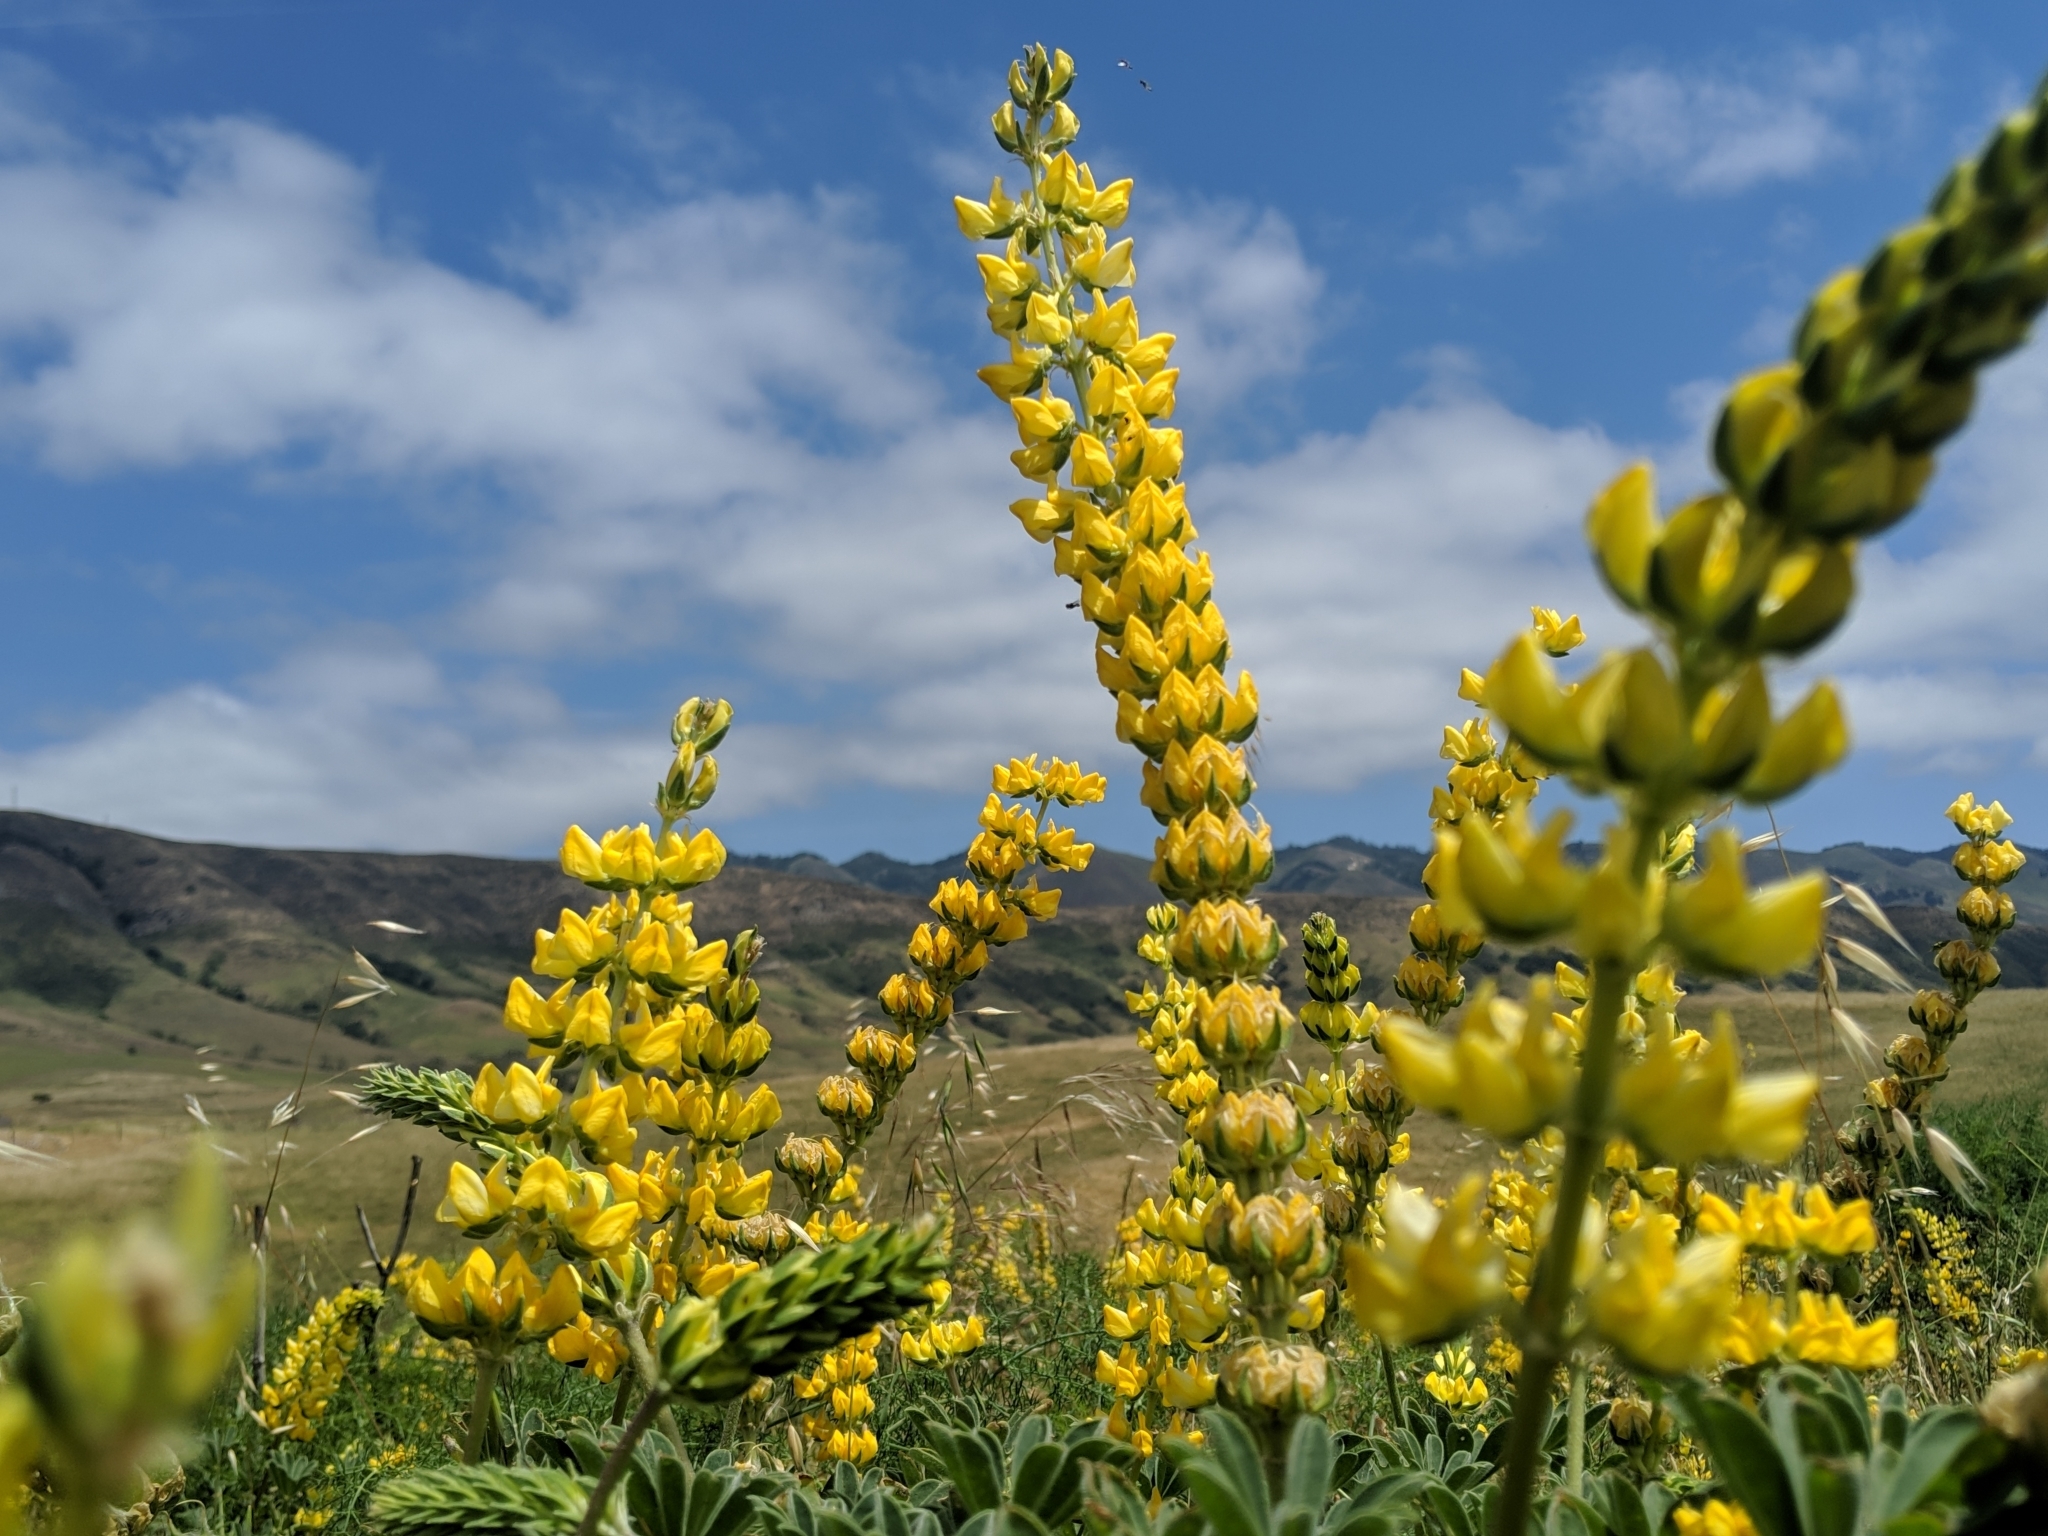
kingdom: Plantae
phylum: Tracheophyta
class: Magnoliopsida
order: Fabales
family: Fabaceae
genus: Lupinus
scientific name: Lupinus densiflorus
